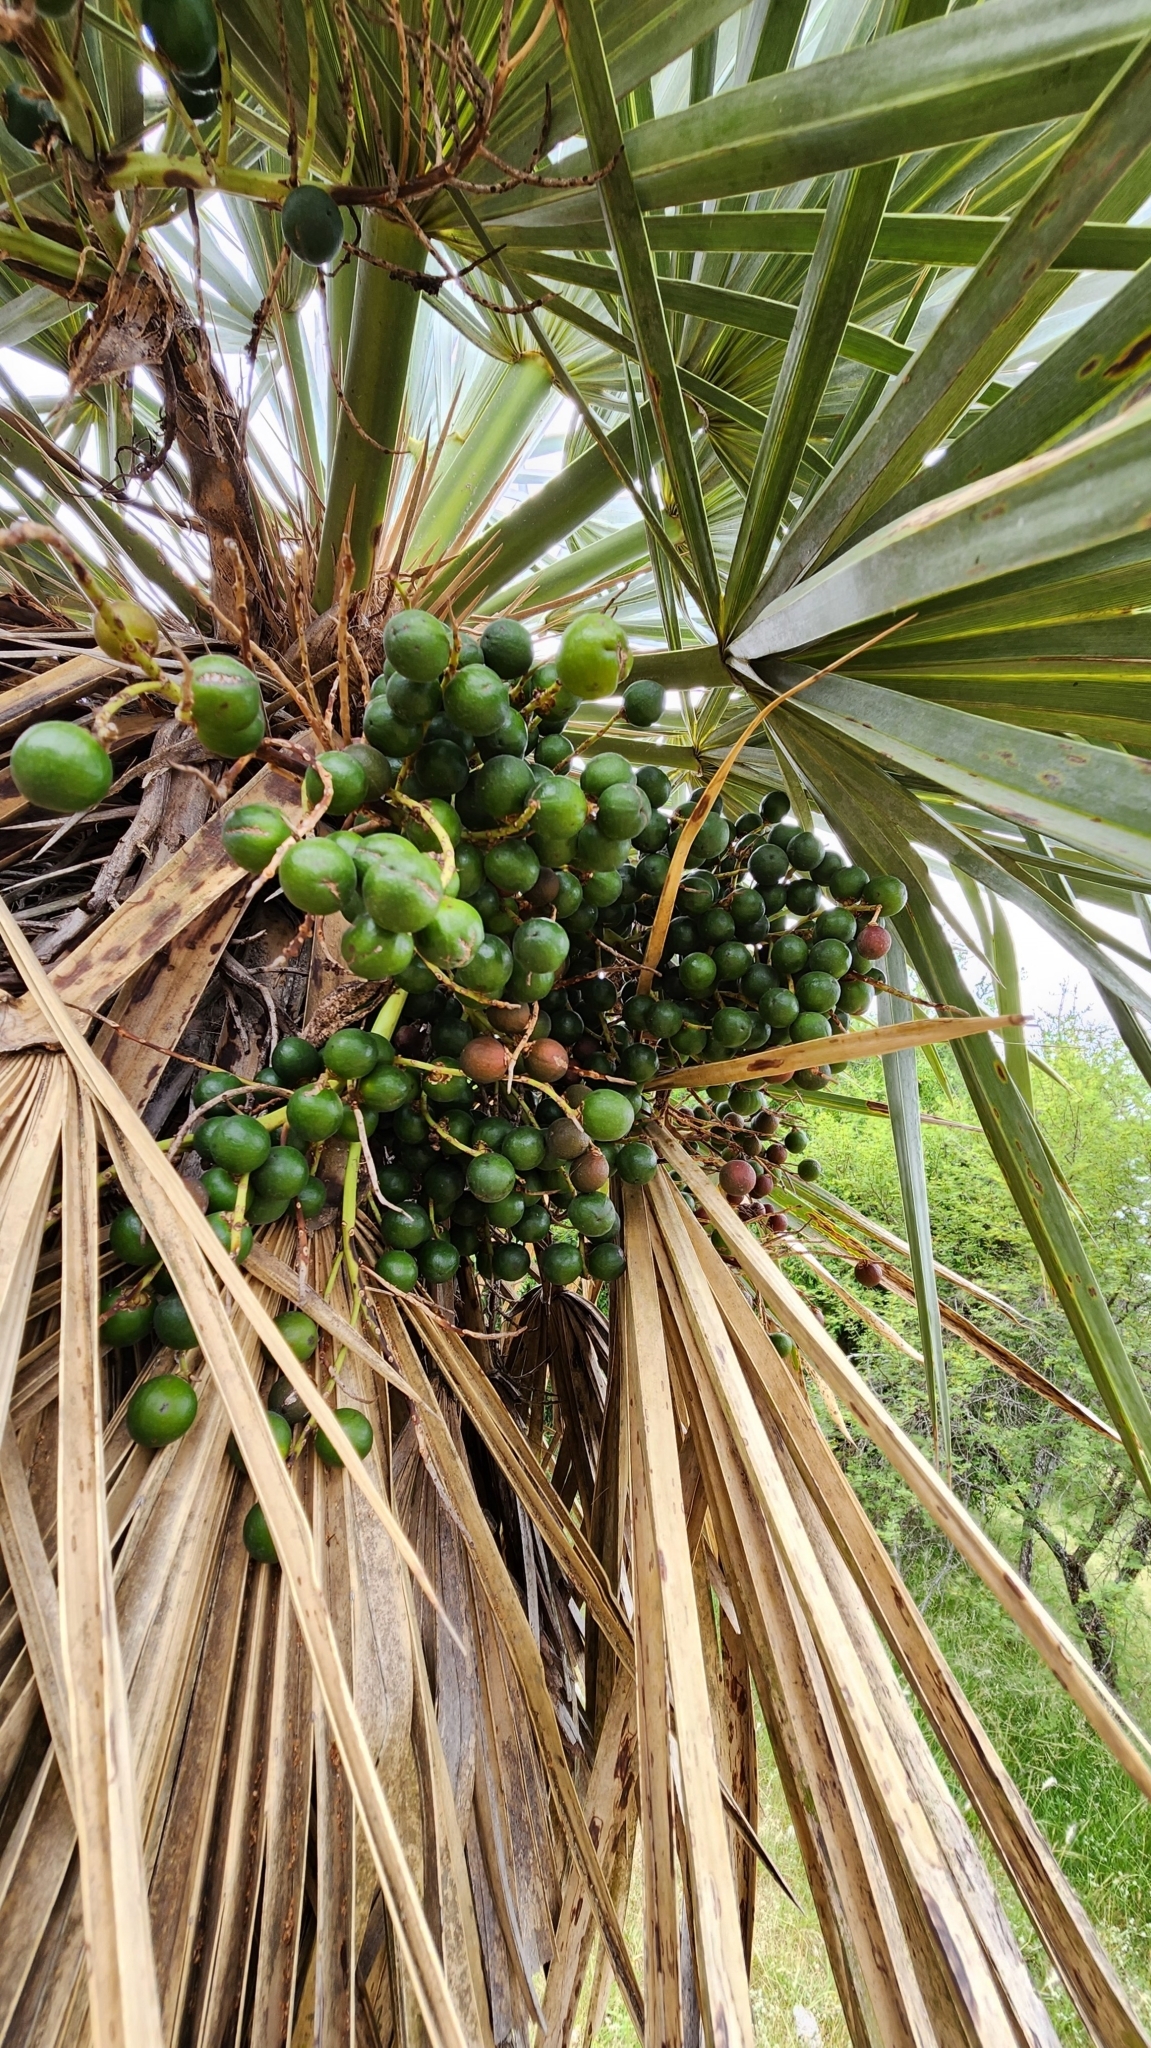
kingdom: Plantae
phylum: Tracheophyta
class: Liliopsida
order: Arecales
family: Arecaceae
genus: Trithrinax
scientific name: Trithrinax campestris
